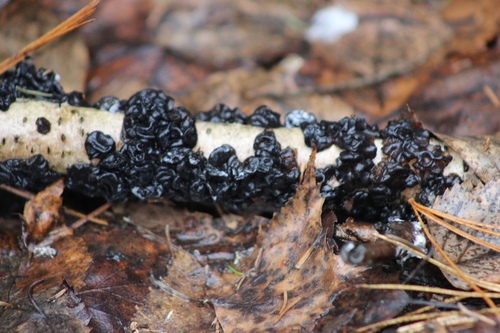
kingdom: Fungi
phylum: Basidiomycota
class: Agaricomycetes
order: Auriculariales
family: Auriculariaceae
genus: Exidia
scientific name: Exidia glandulosa
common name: Witches' butter
